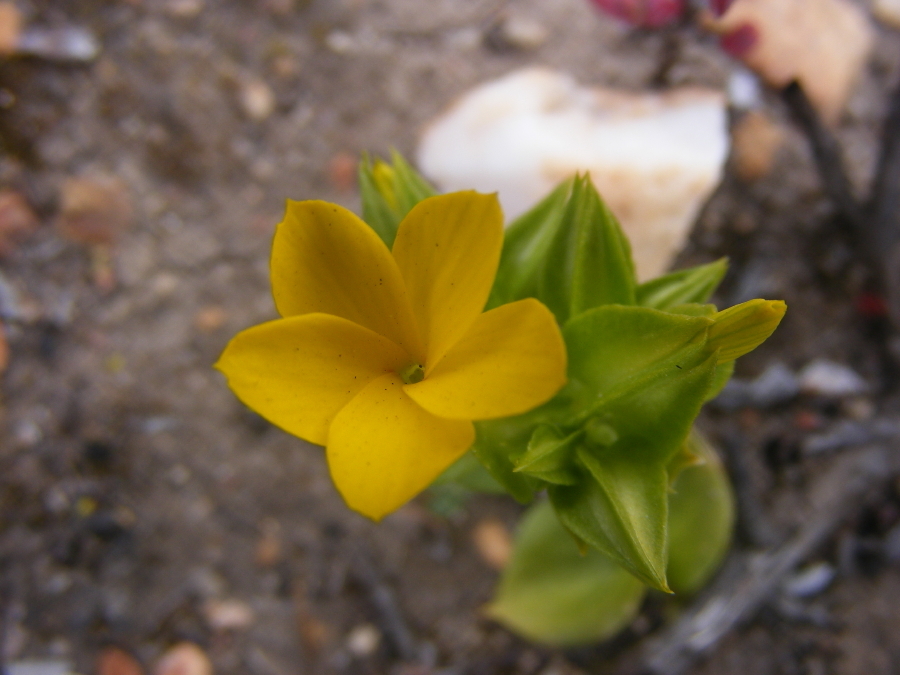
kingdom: Plantae
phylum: Tracheophyta
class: Magnoliopsida
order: Gentianales
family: Gentianaceae
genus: Sebaea
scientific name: Sebaea exacoides
